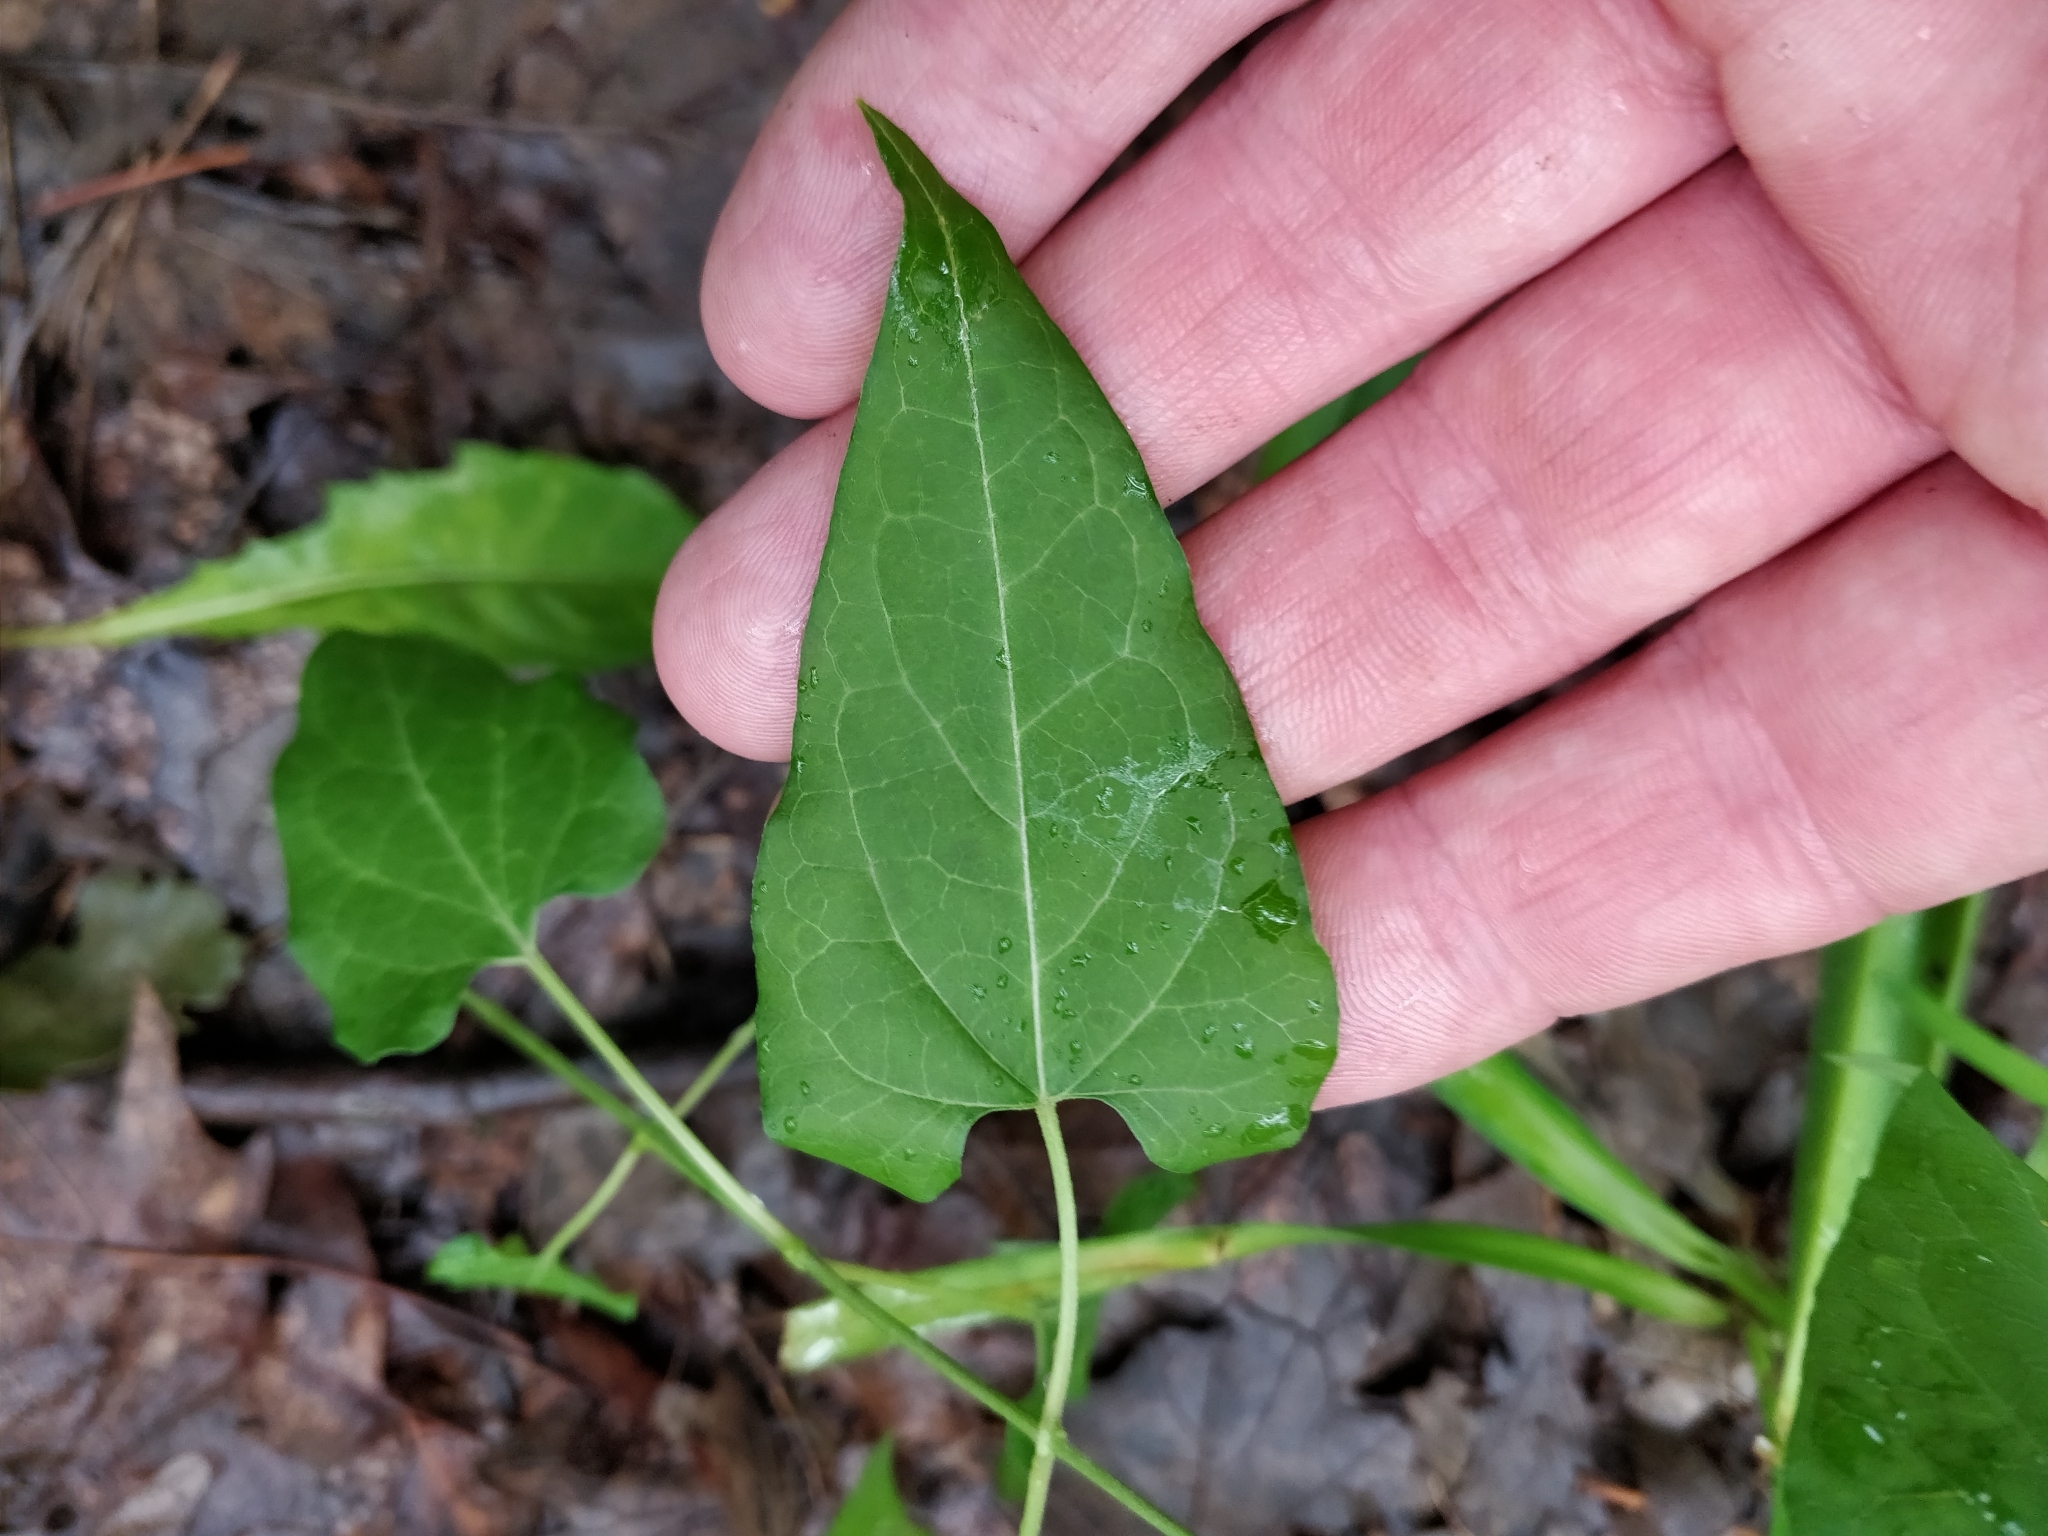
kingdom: Plantae
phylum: Tracheophyta
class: Magnoliopsida
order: Gentianales
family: Apocynaceae
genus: Cynanchum
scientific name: Cynanchum laeve
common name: Sandvine
